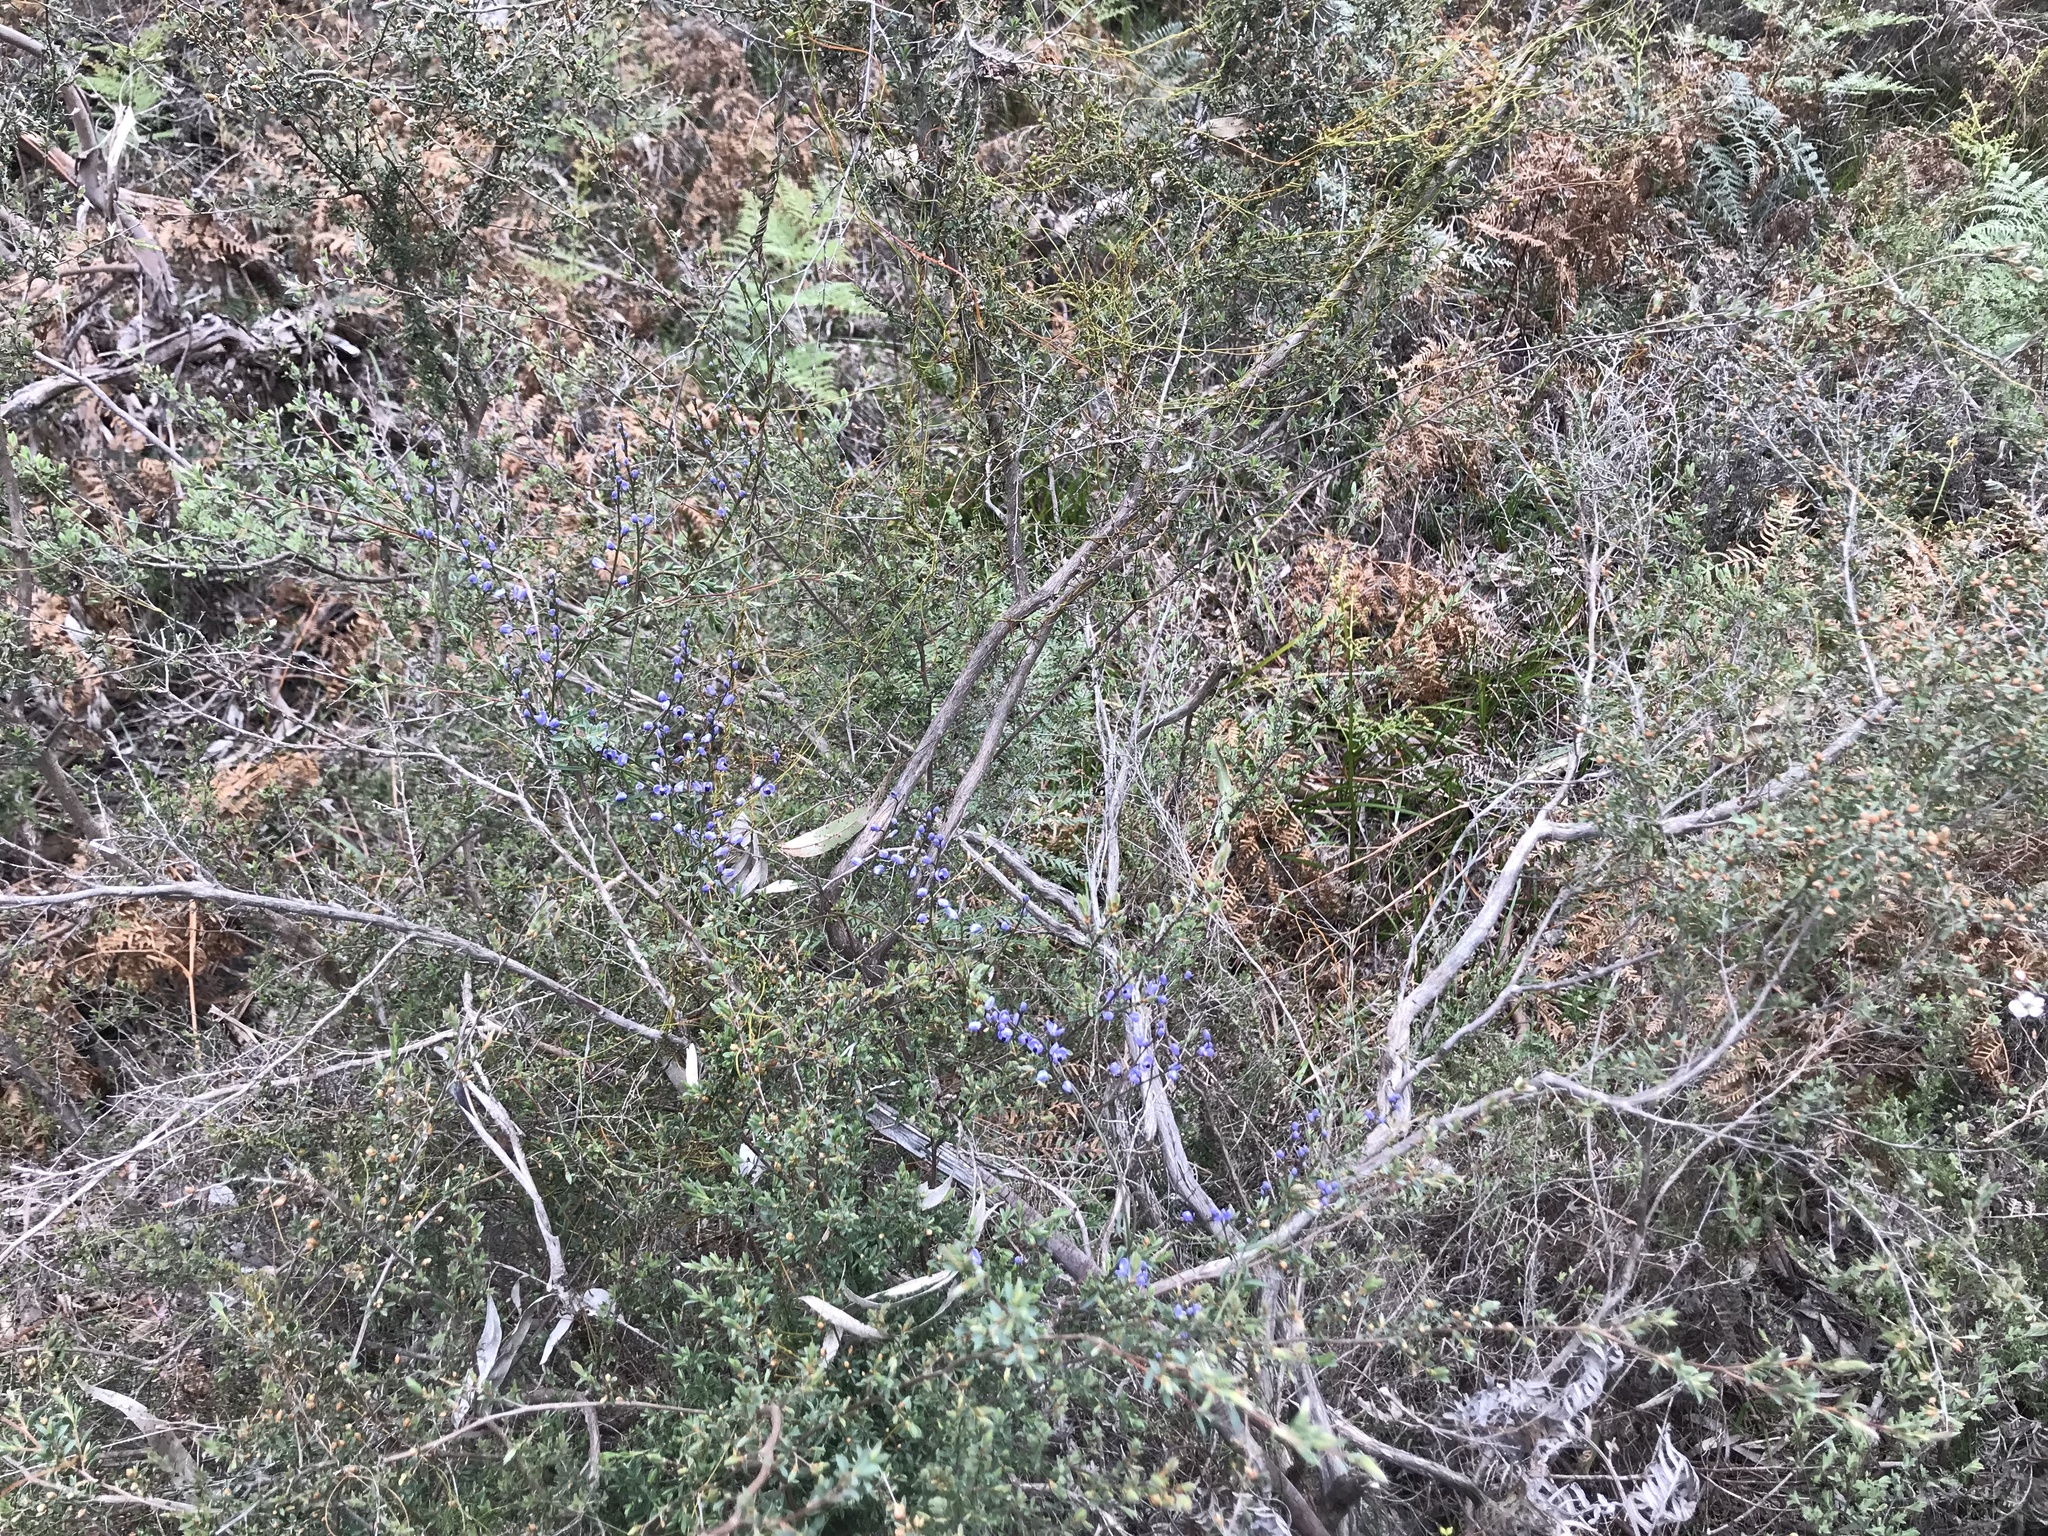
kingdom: Plantae
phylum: Tracheophyta
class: Magnoliopsida
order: Fabales
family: Polygalaceae
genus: Comesperma
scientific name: Comesperma volubile
